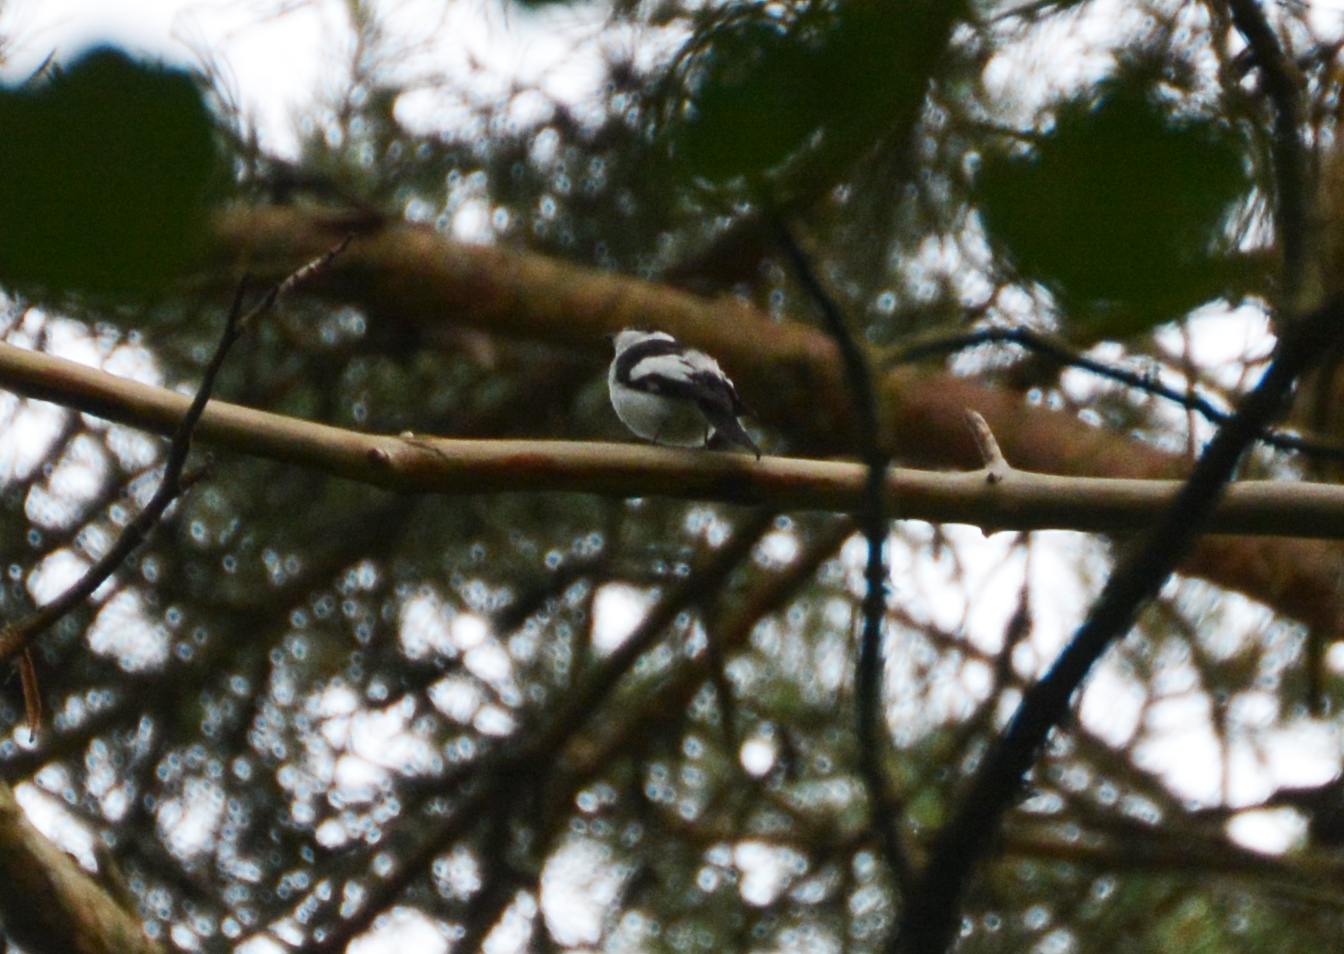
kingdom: Animalia
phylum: Chordata
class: Aves
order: Passeriformes
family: Muscicapidae
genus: Ficedula
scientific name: Ficedula albicollis
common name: Collared flycatcher
